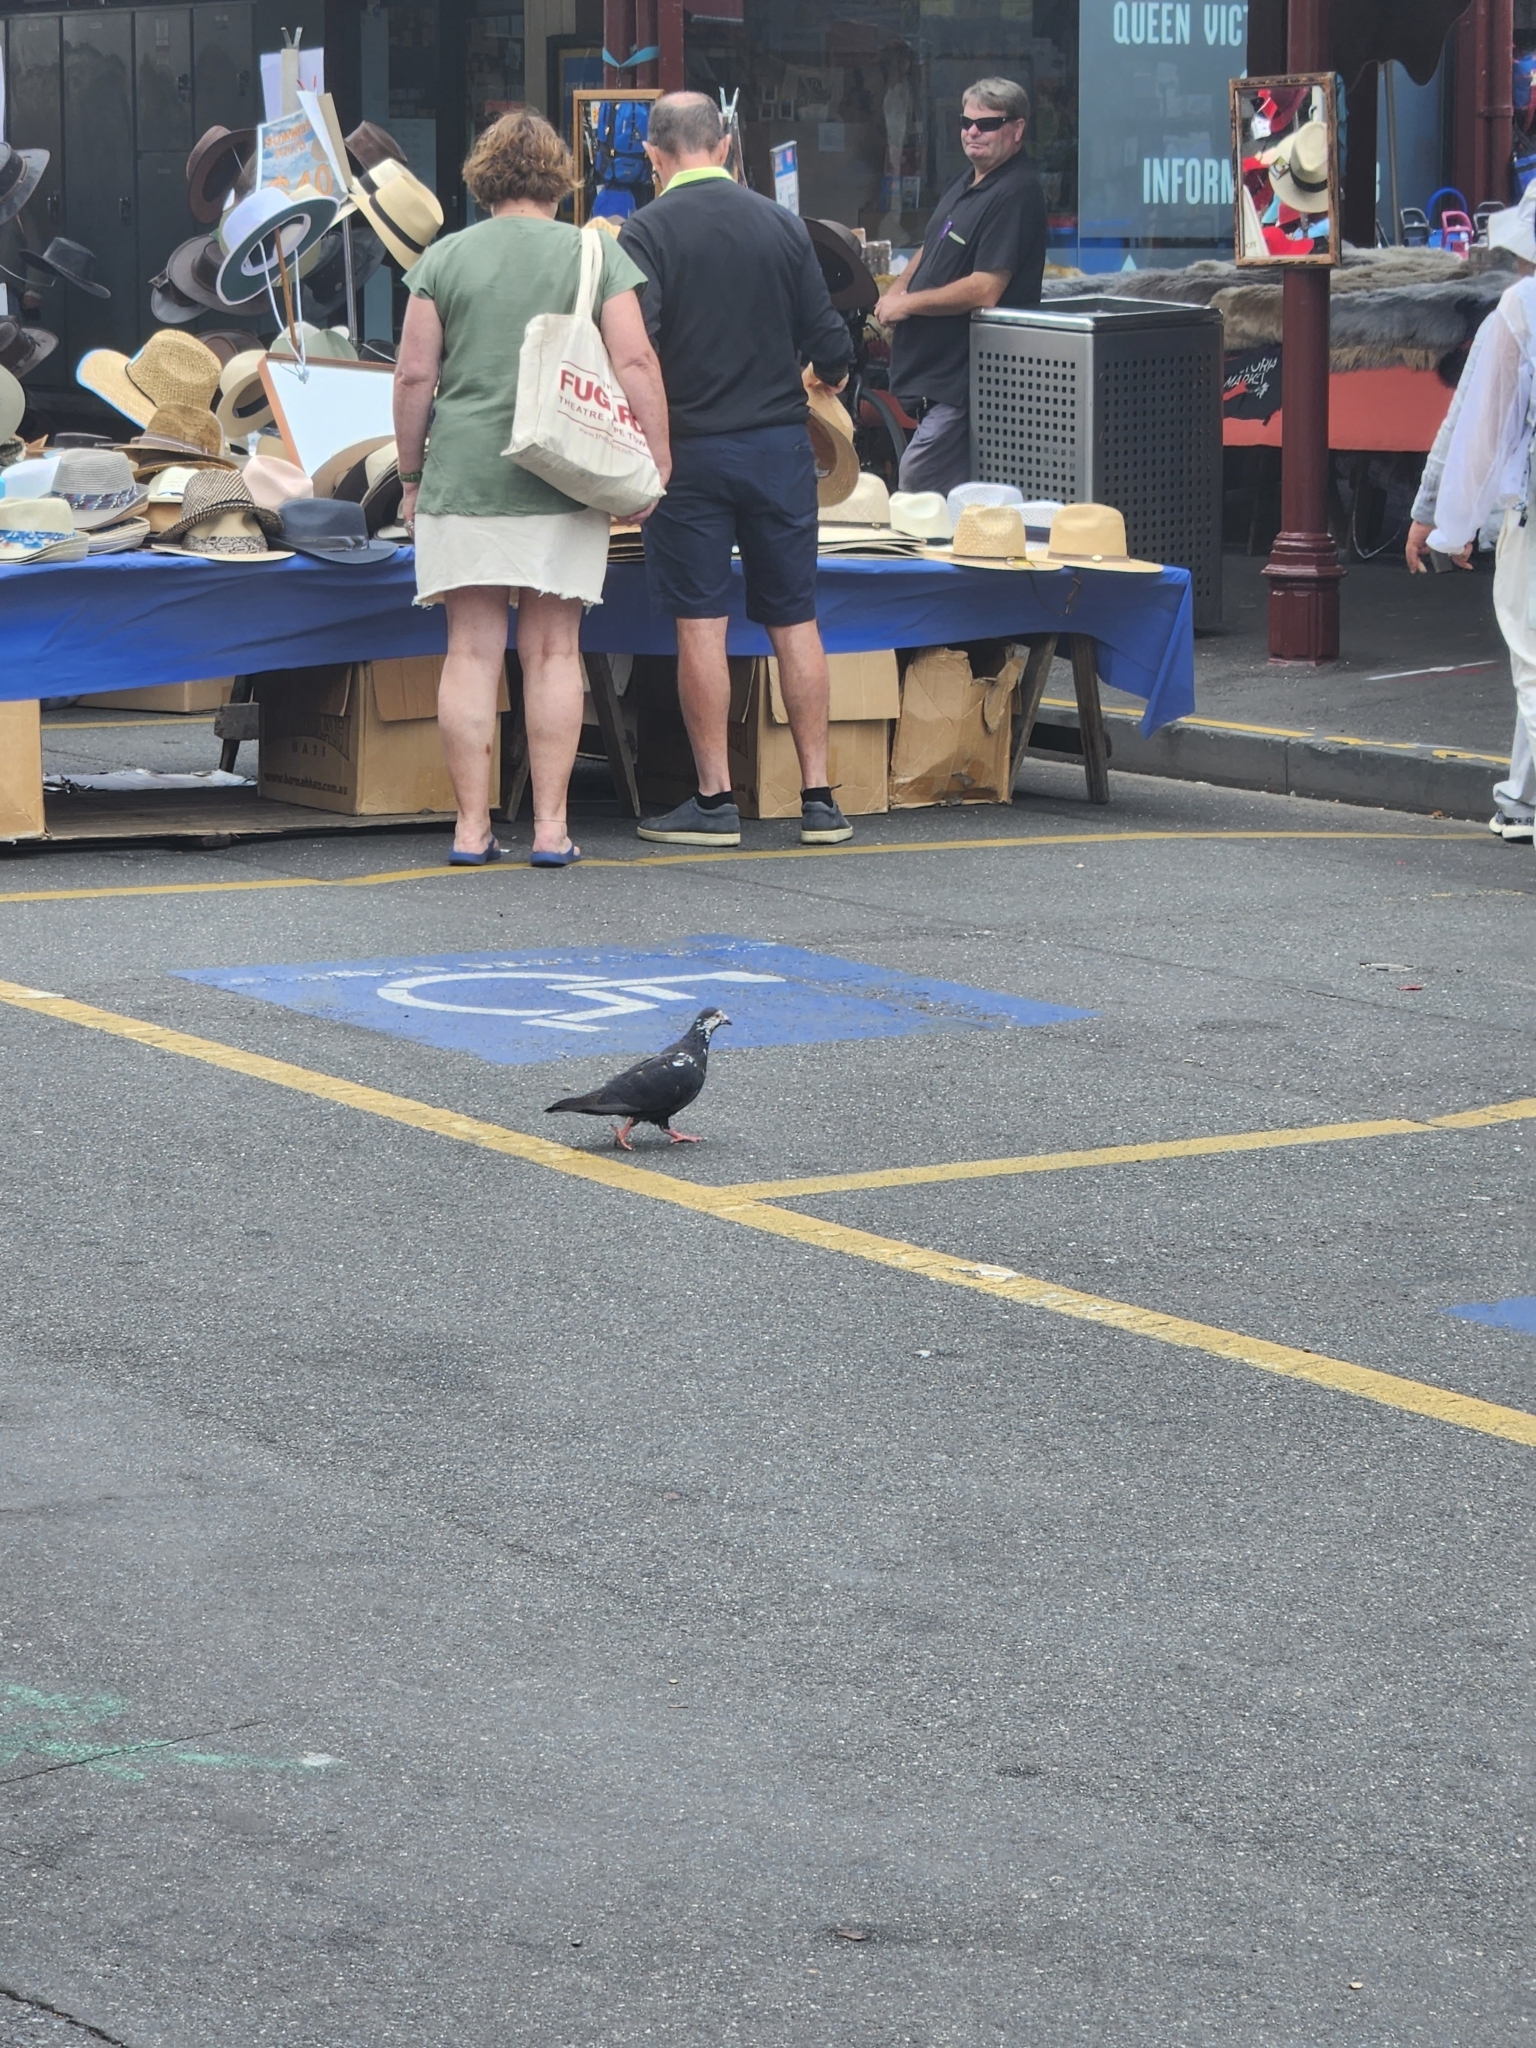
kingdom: Animalia
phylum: Chordata
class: Aves
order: Columbiformes
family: Columbidae
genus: Columba
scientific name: Columba livia
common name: Rock pigeon
